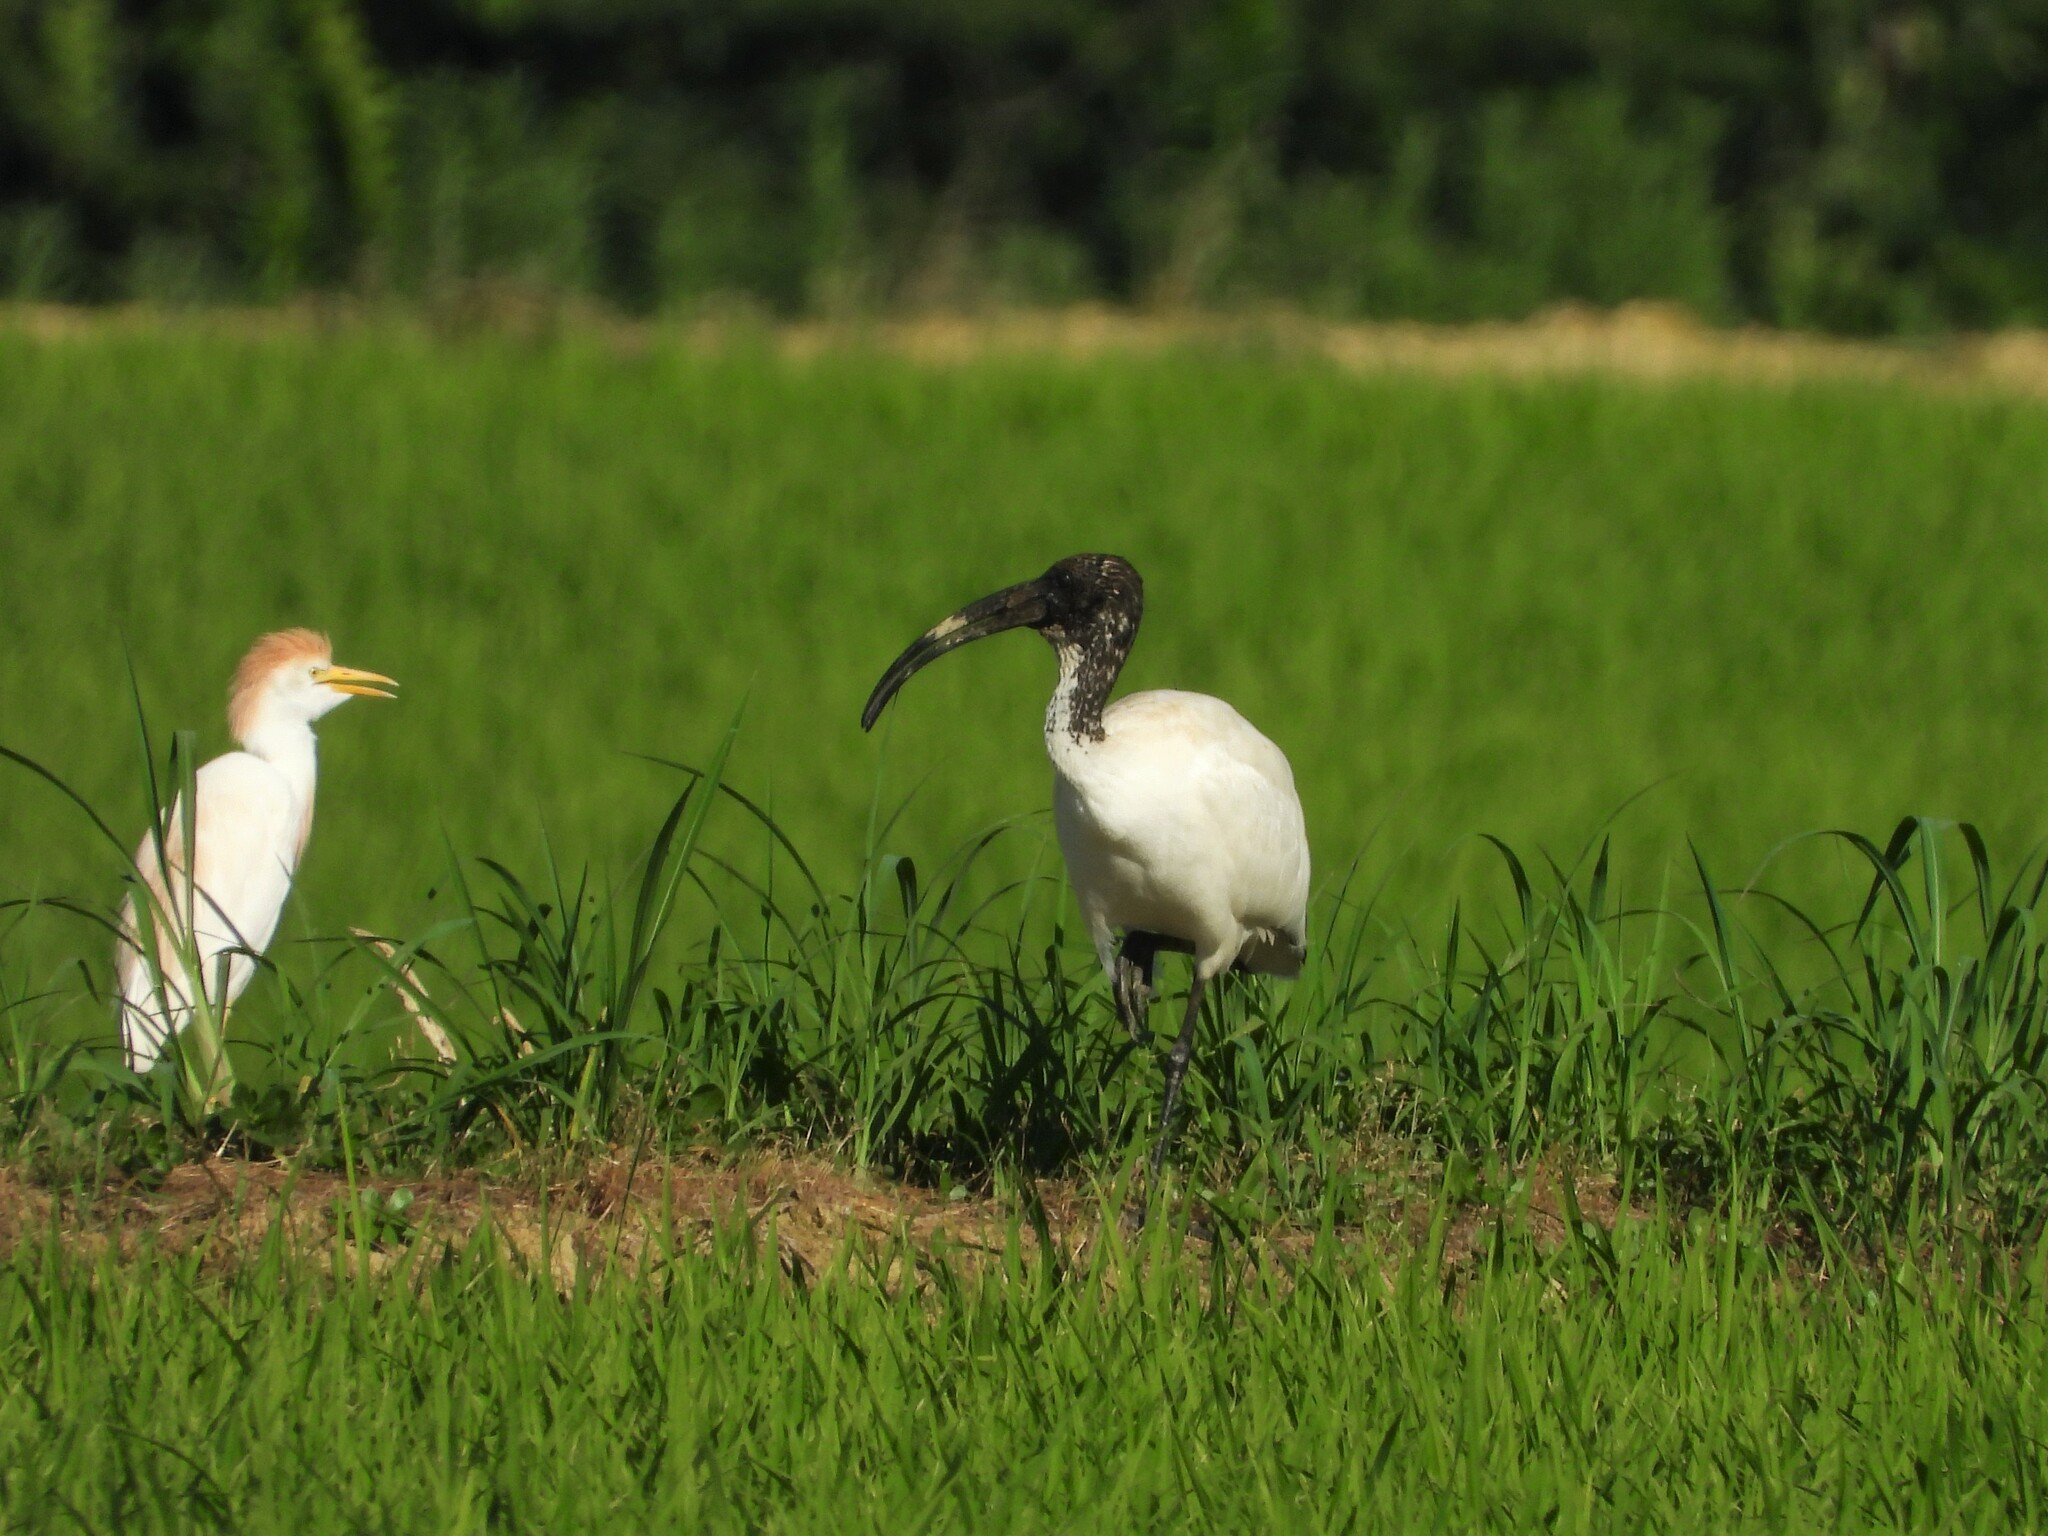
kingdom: Animalia
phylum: Chordata
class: Aves
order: Pelecaniformes
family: Threskiornithidae
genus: Threskiornis
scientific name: Threskiornis aethiopicus
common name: Sacred ibis
